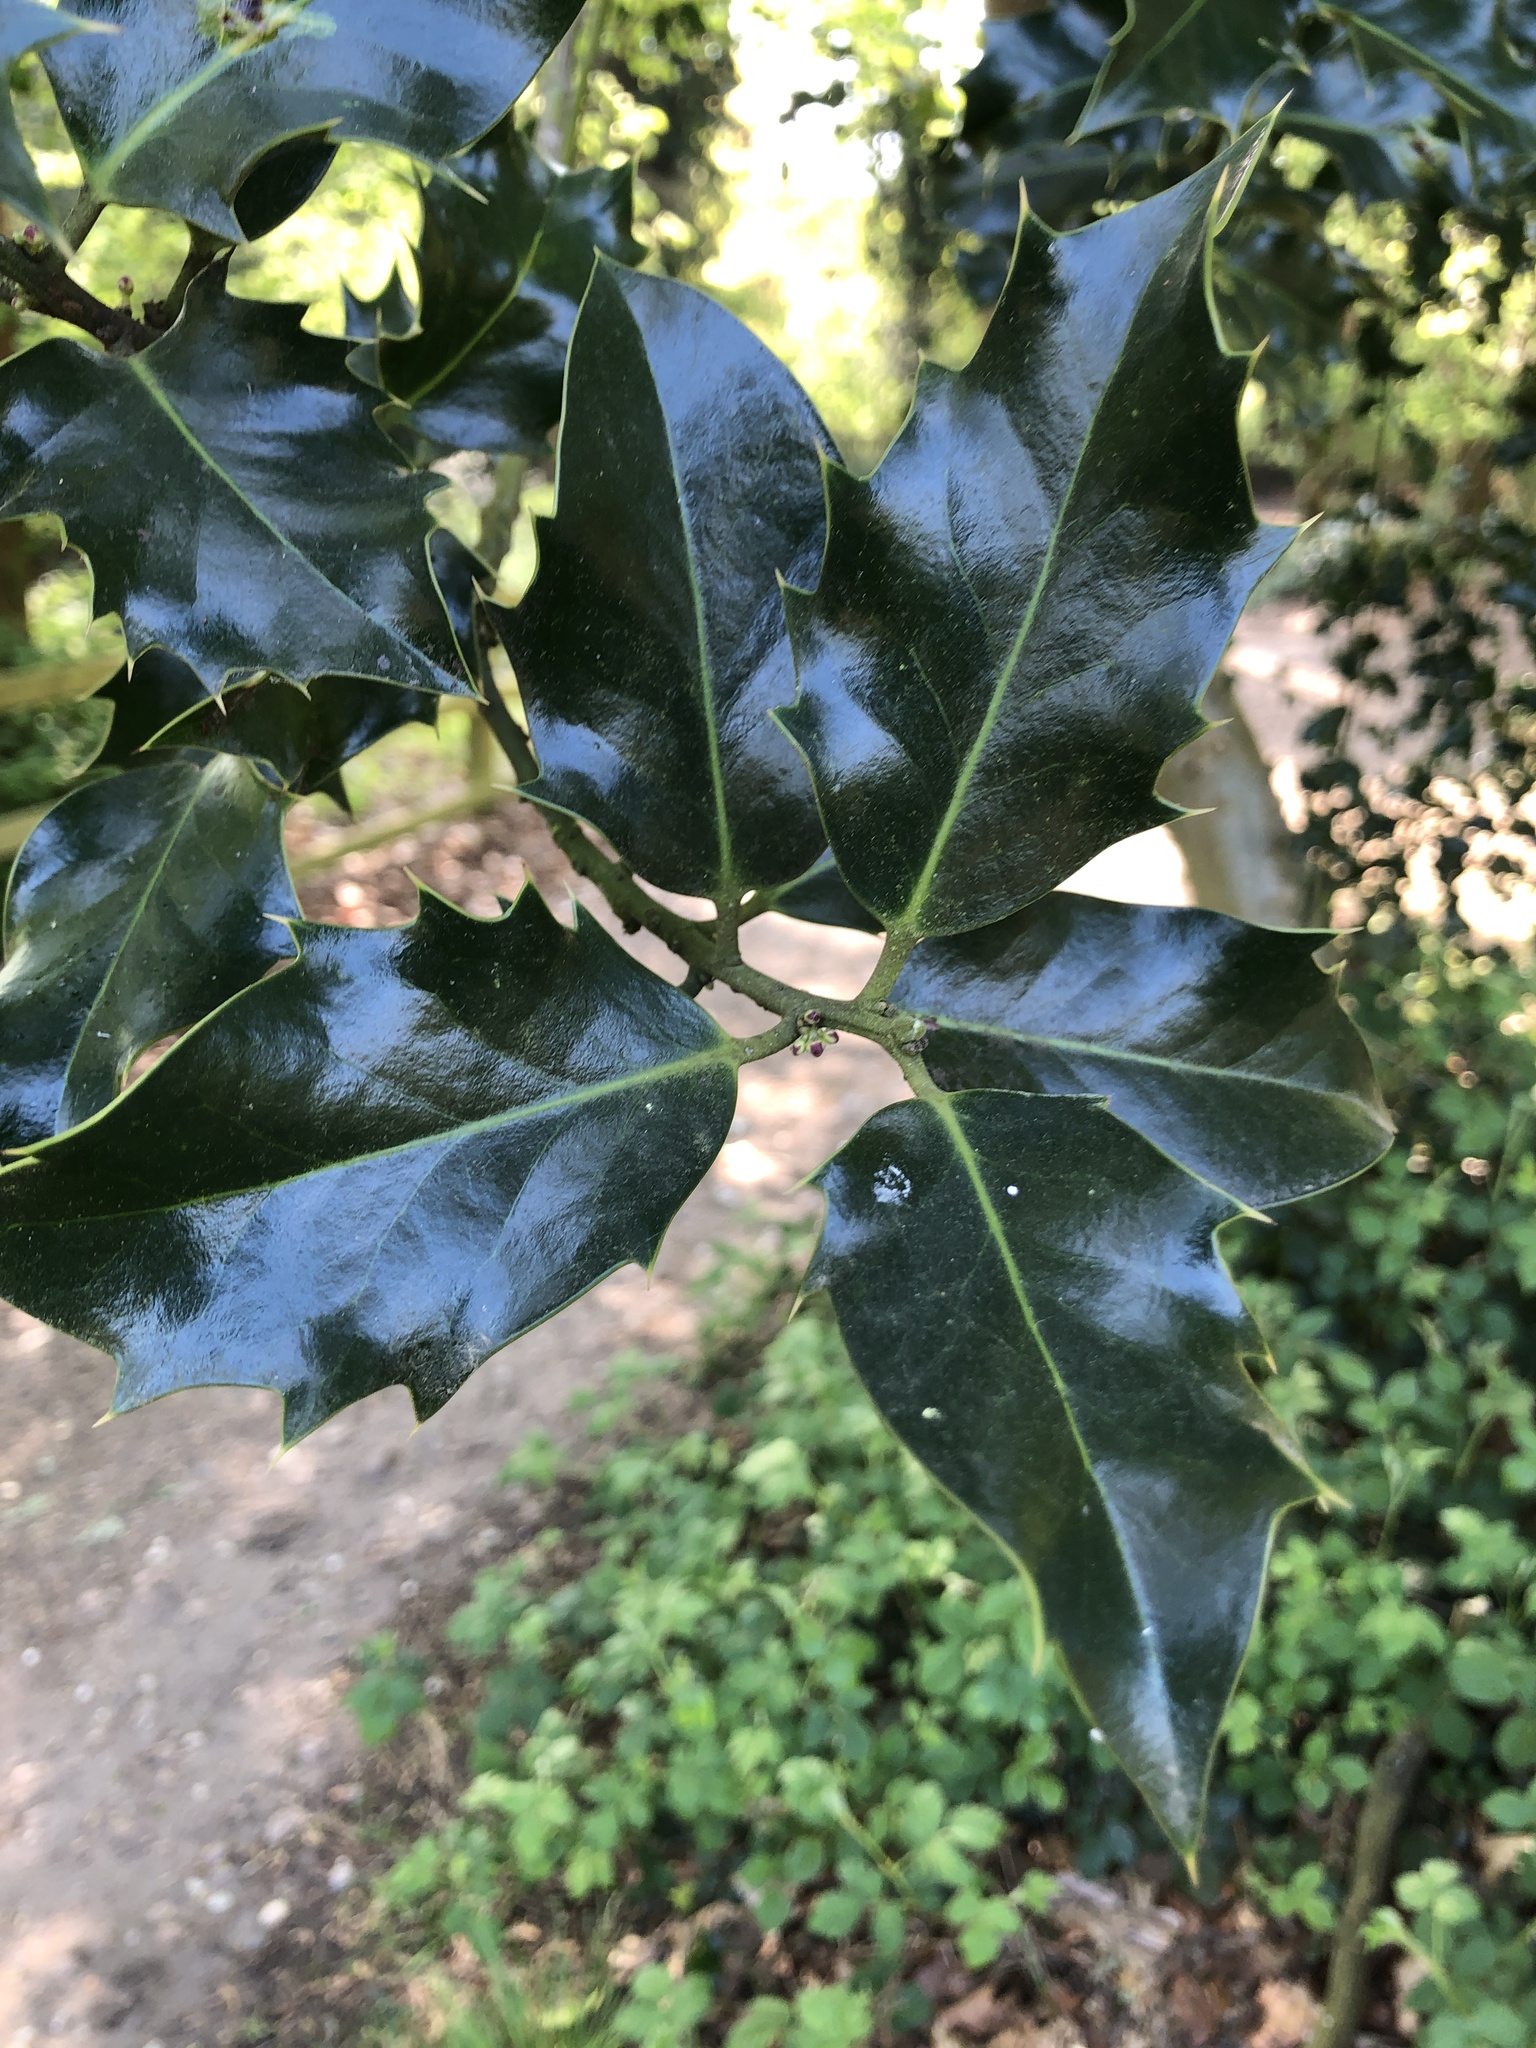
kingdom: Plantae
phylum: Tracheophyta
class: Magnoliopsida
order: Aquifoliales
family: Aquifoliaceae
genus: Ilex
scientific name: Ilex aquifolium
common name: English holly
